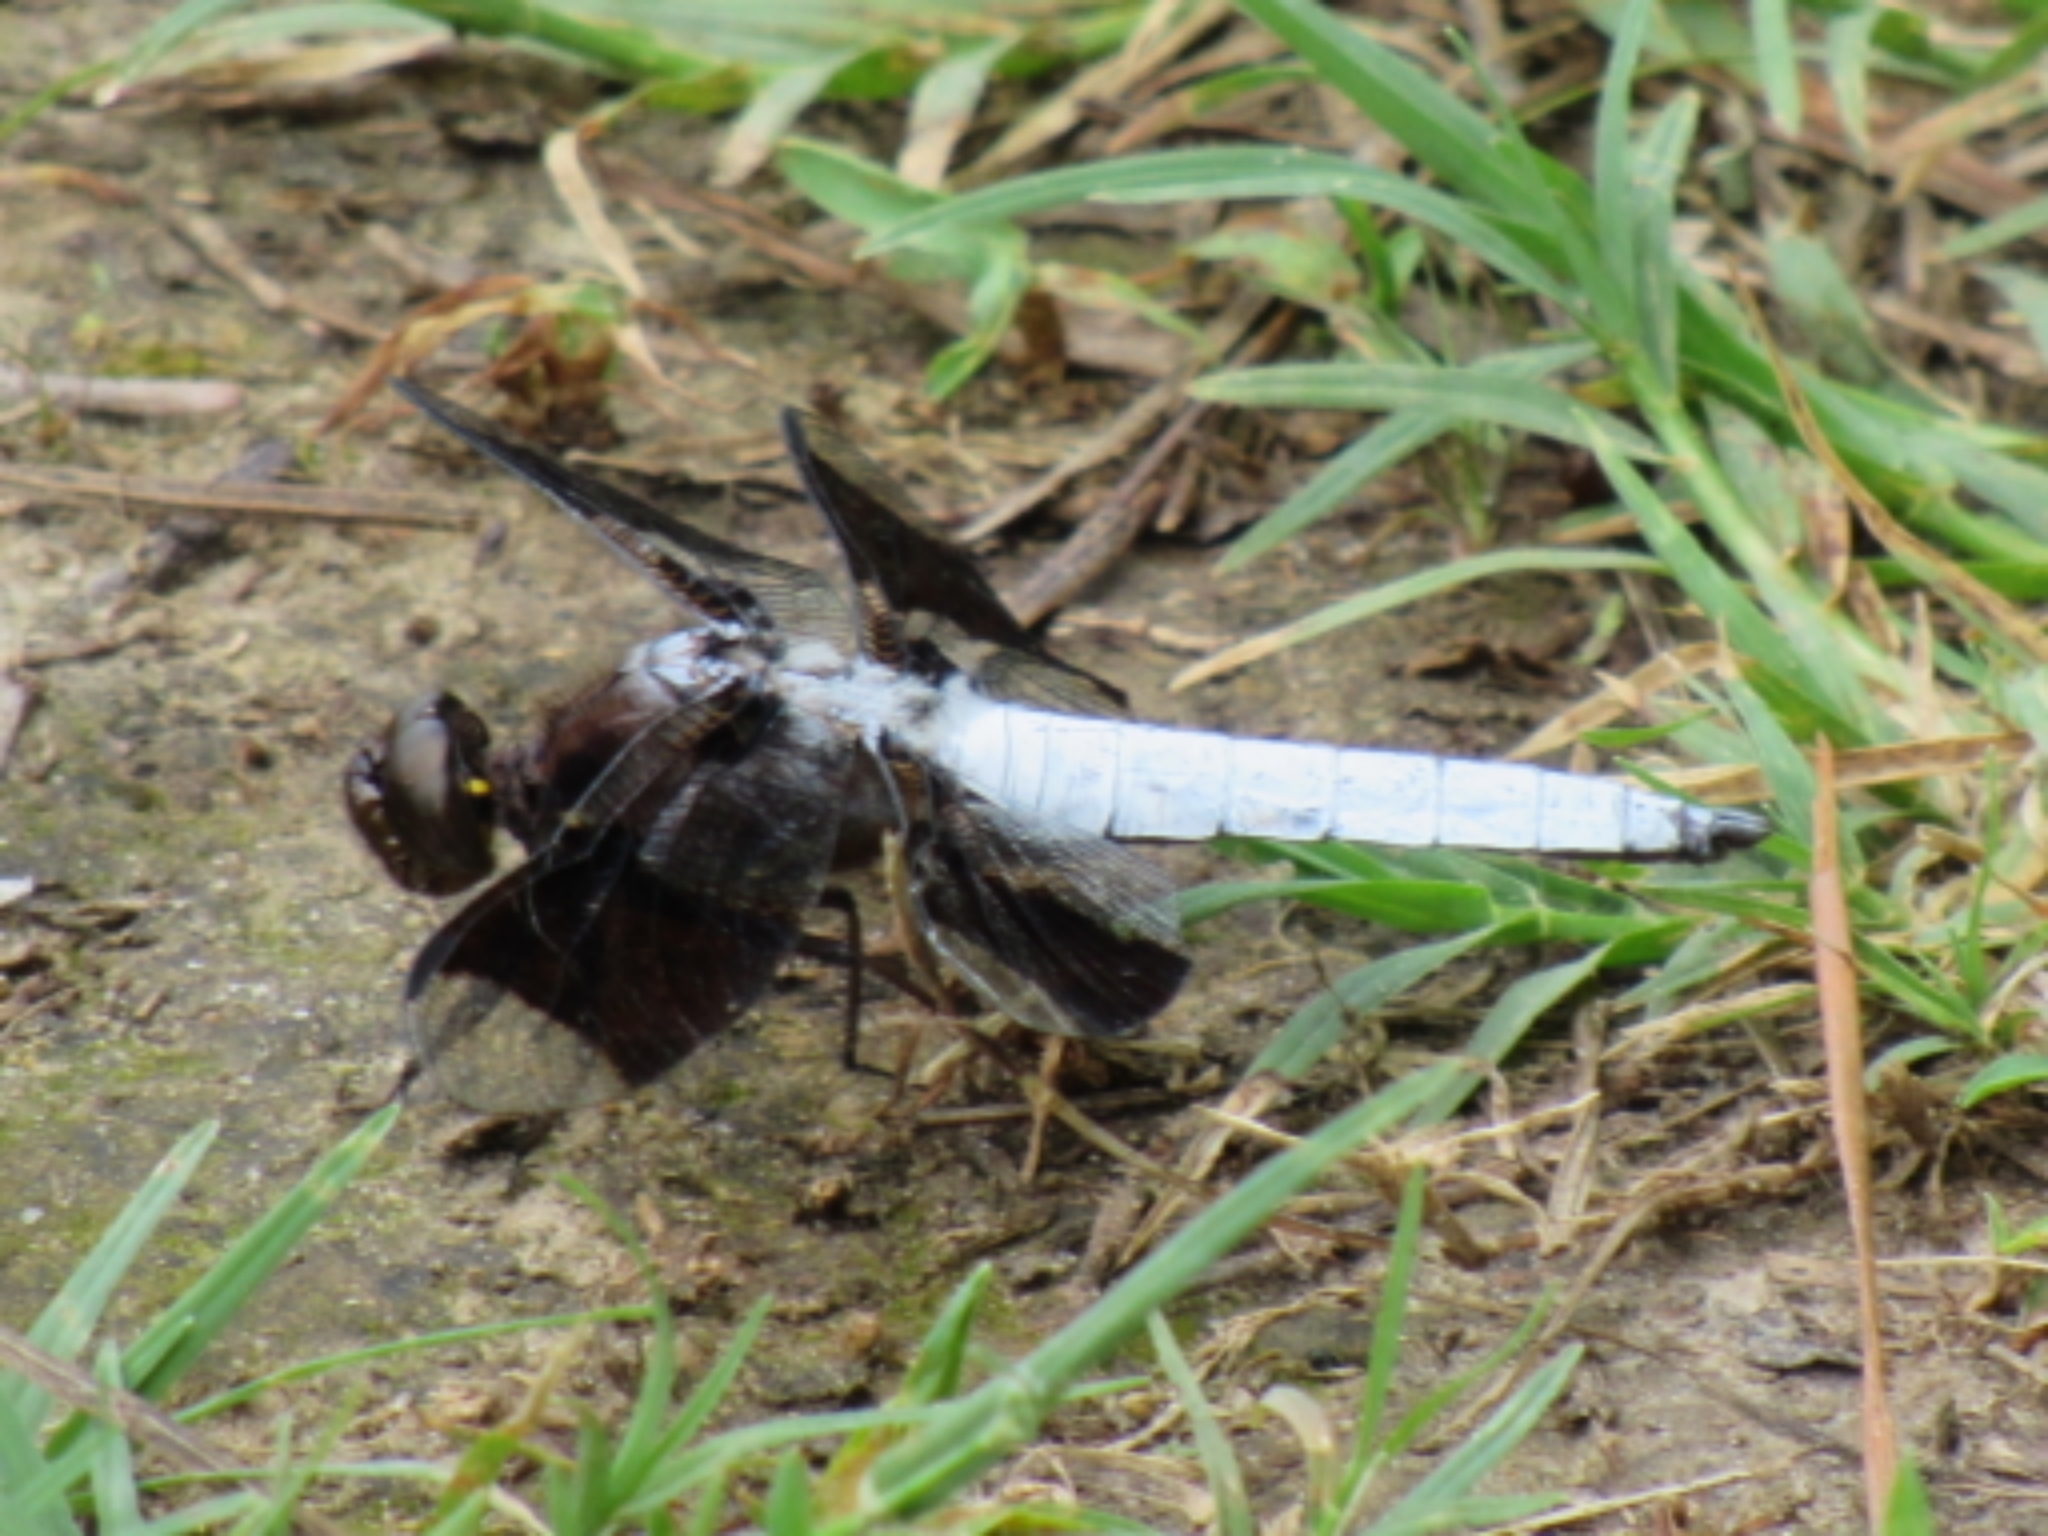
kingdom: Animalia
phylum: Arthropoda
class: Insecta
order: Odonata
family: Libellulidae
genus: Plathemis
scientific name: Plathemis lydia
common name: Common whitetail
